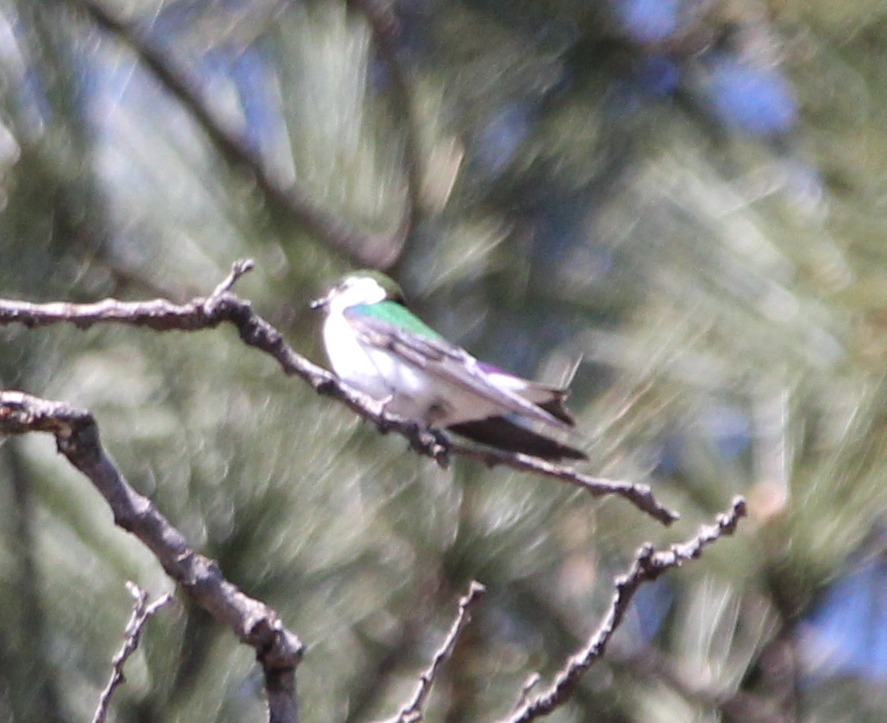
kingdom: Animalia
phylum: Chordata
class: Aves
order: Passeriformes
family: Hirundinidae
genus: Tachycineta
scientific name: Tachycineta thalassina
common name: Violet-green swallow
